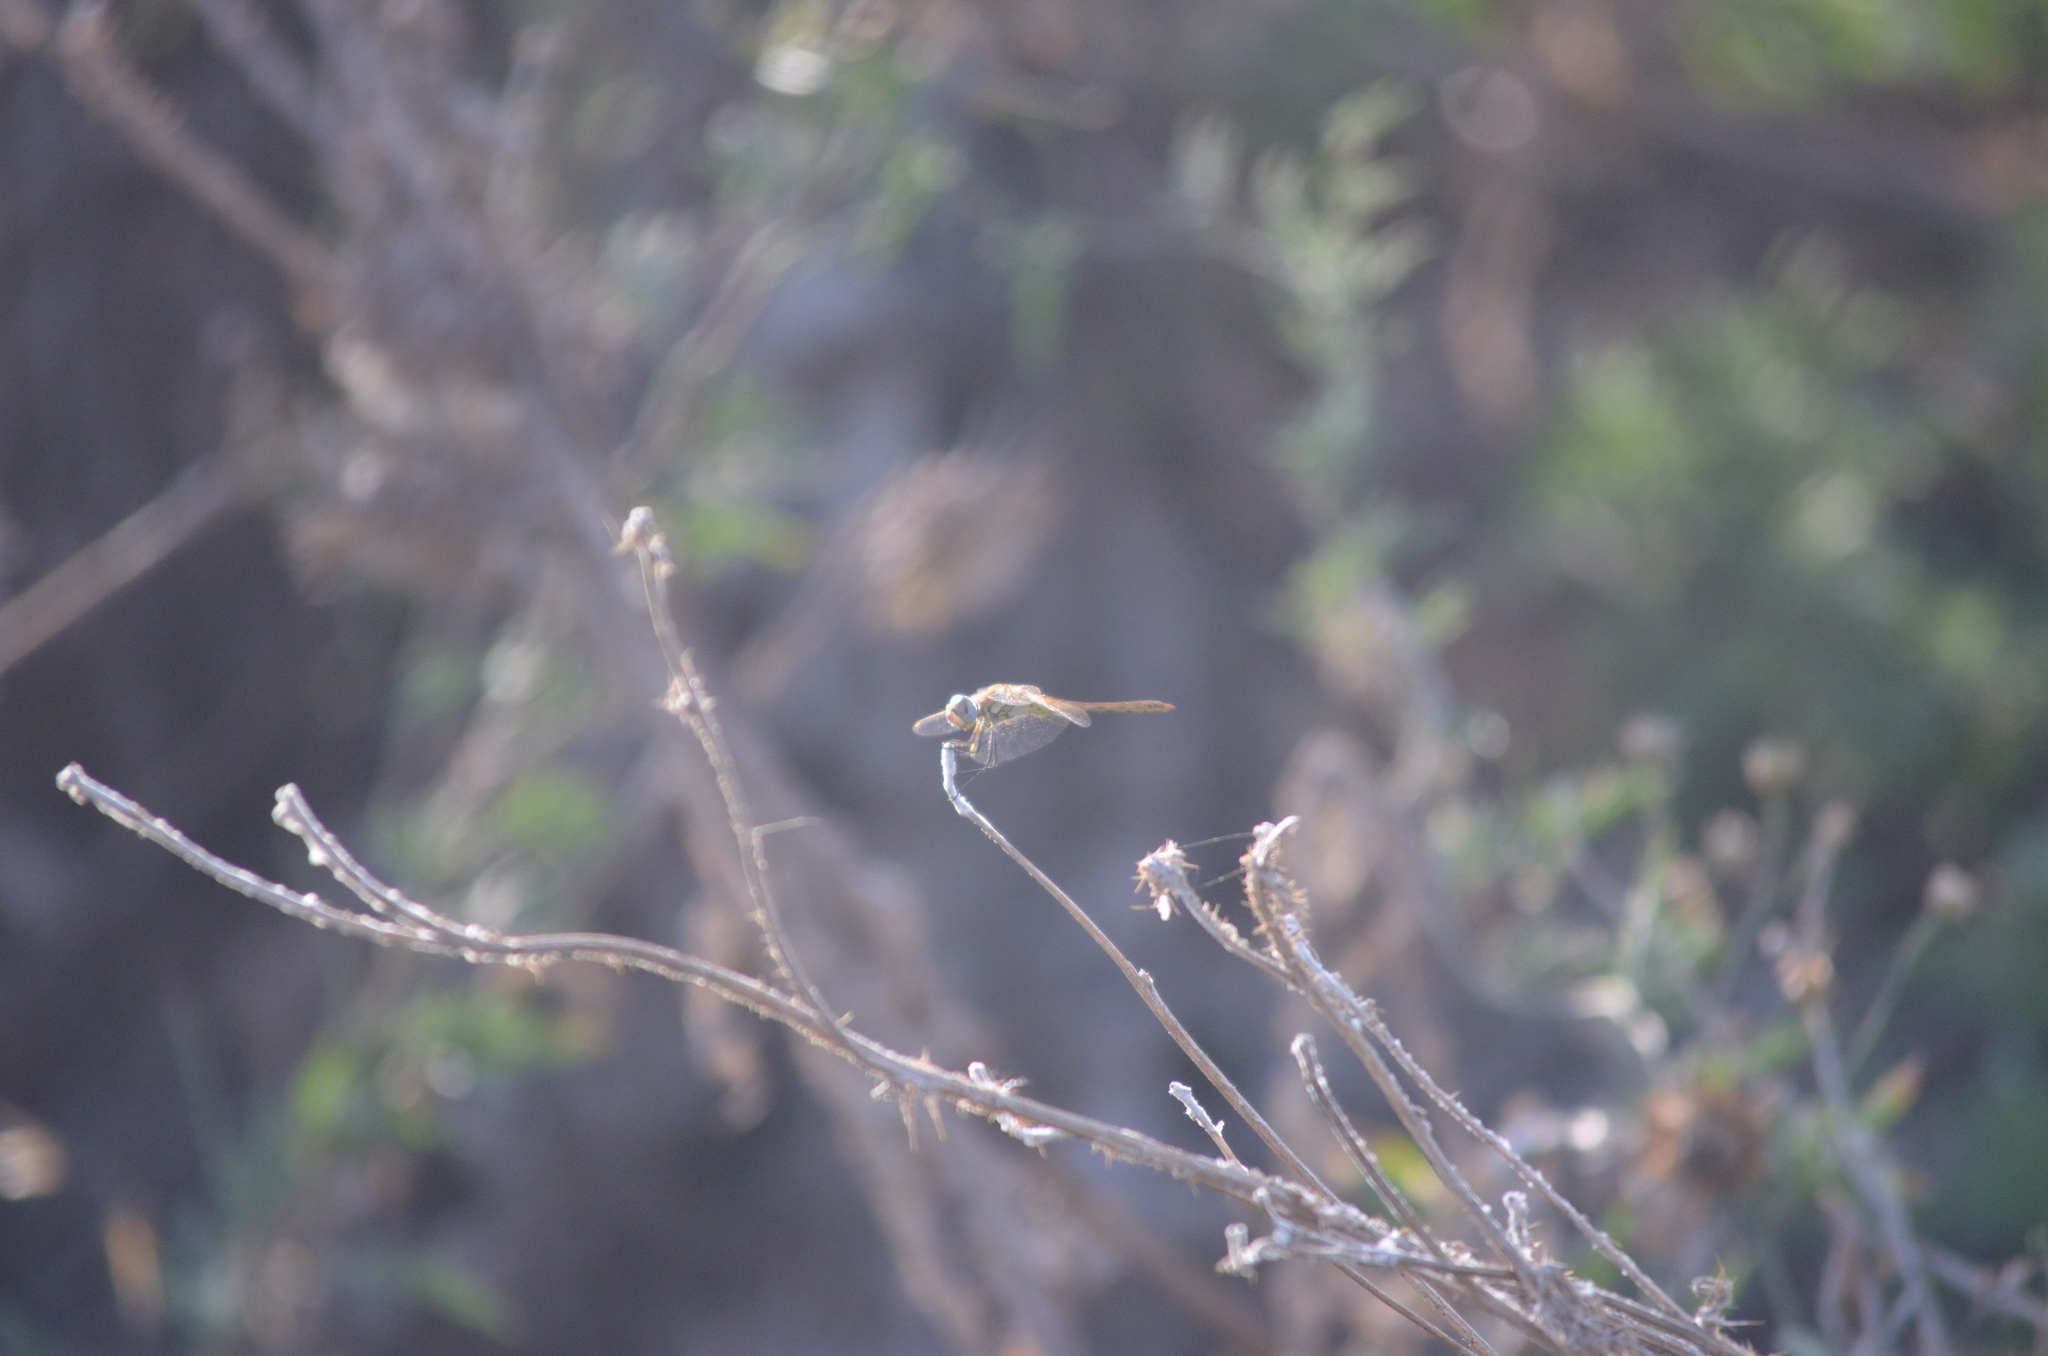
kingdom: Animalia
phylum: Arthropoda
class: Insecta
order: Odonata
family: Libellulidae
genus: Sympetrum
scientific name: Sympetrum fonscolombii
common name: Red-veined darter
